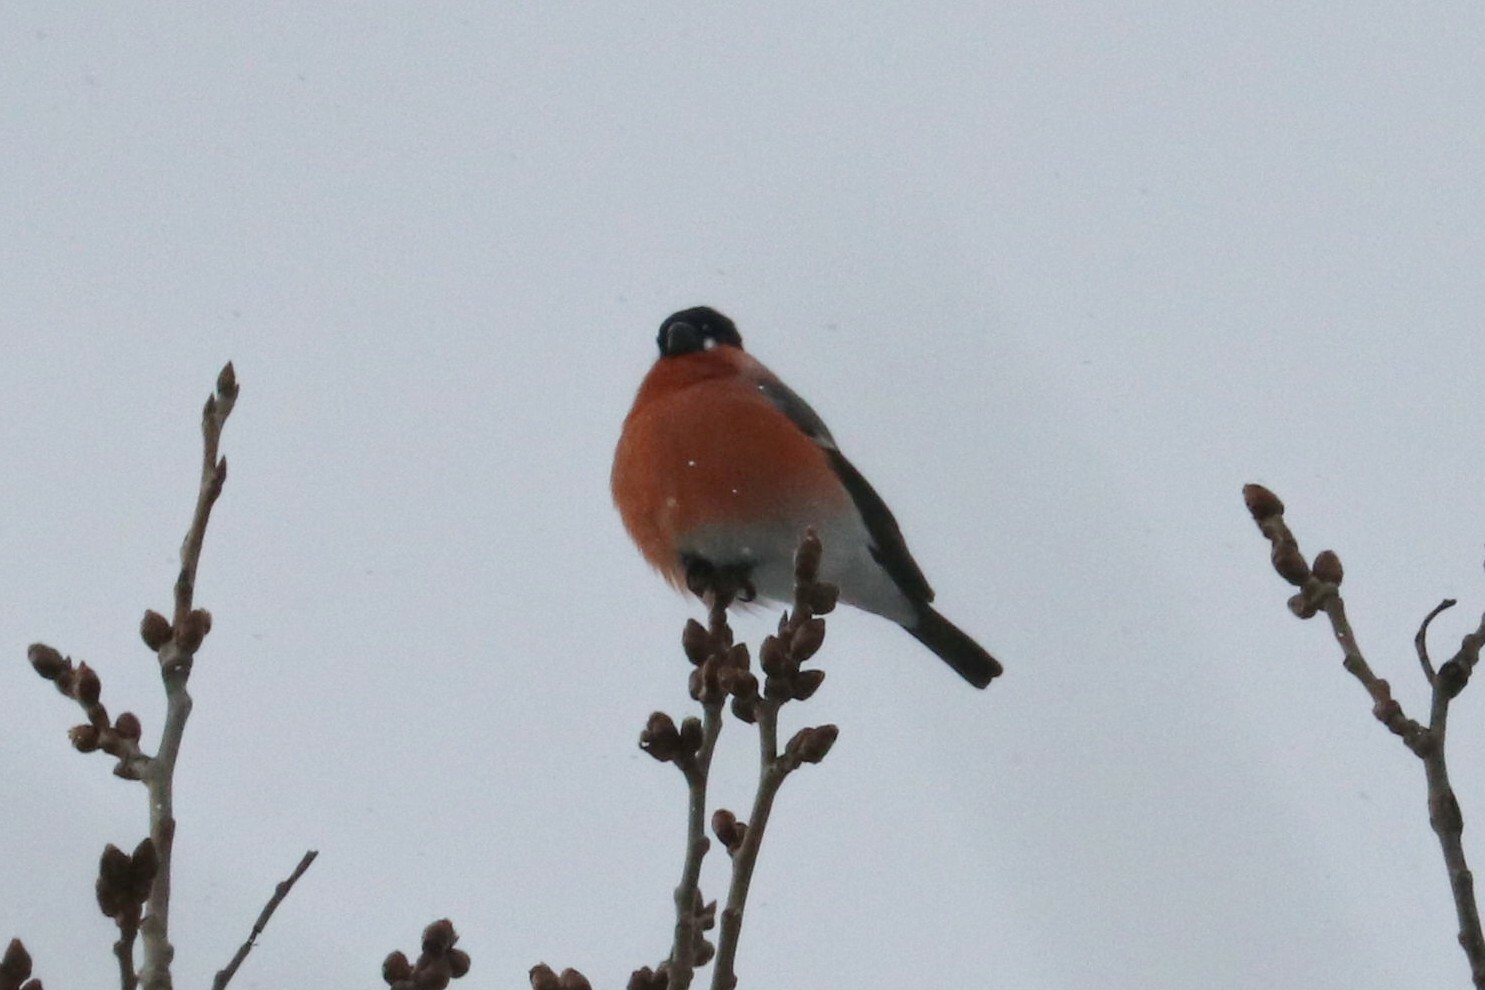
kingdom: Animalia
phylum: Chordata
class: Aves
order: Passeriformes
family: Fringillidae
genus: Pyrrhula
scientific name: Pyrrhula pyrrhula
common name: Eurasian bullfinch
